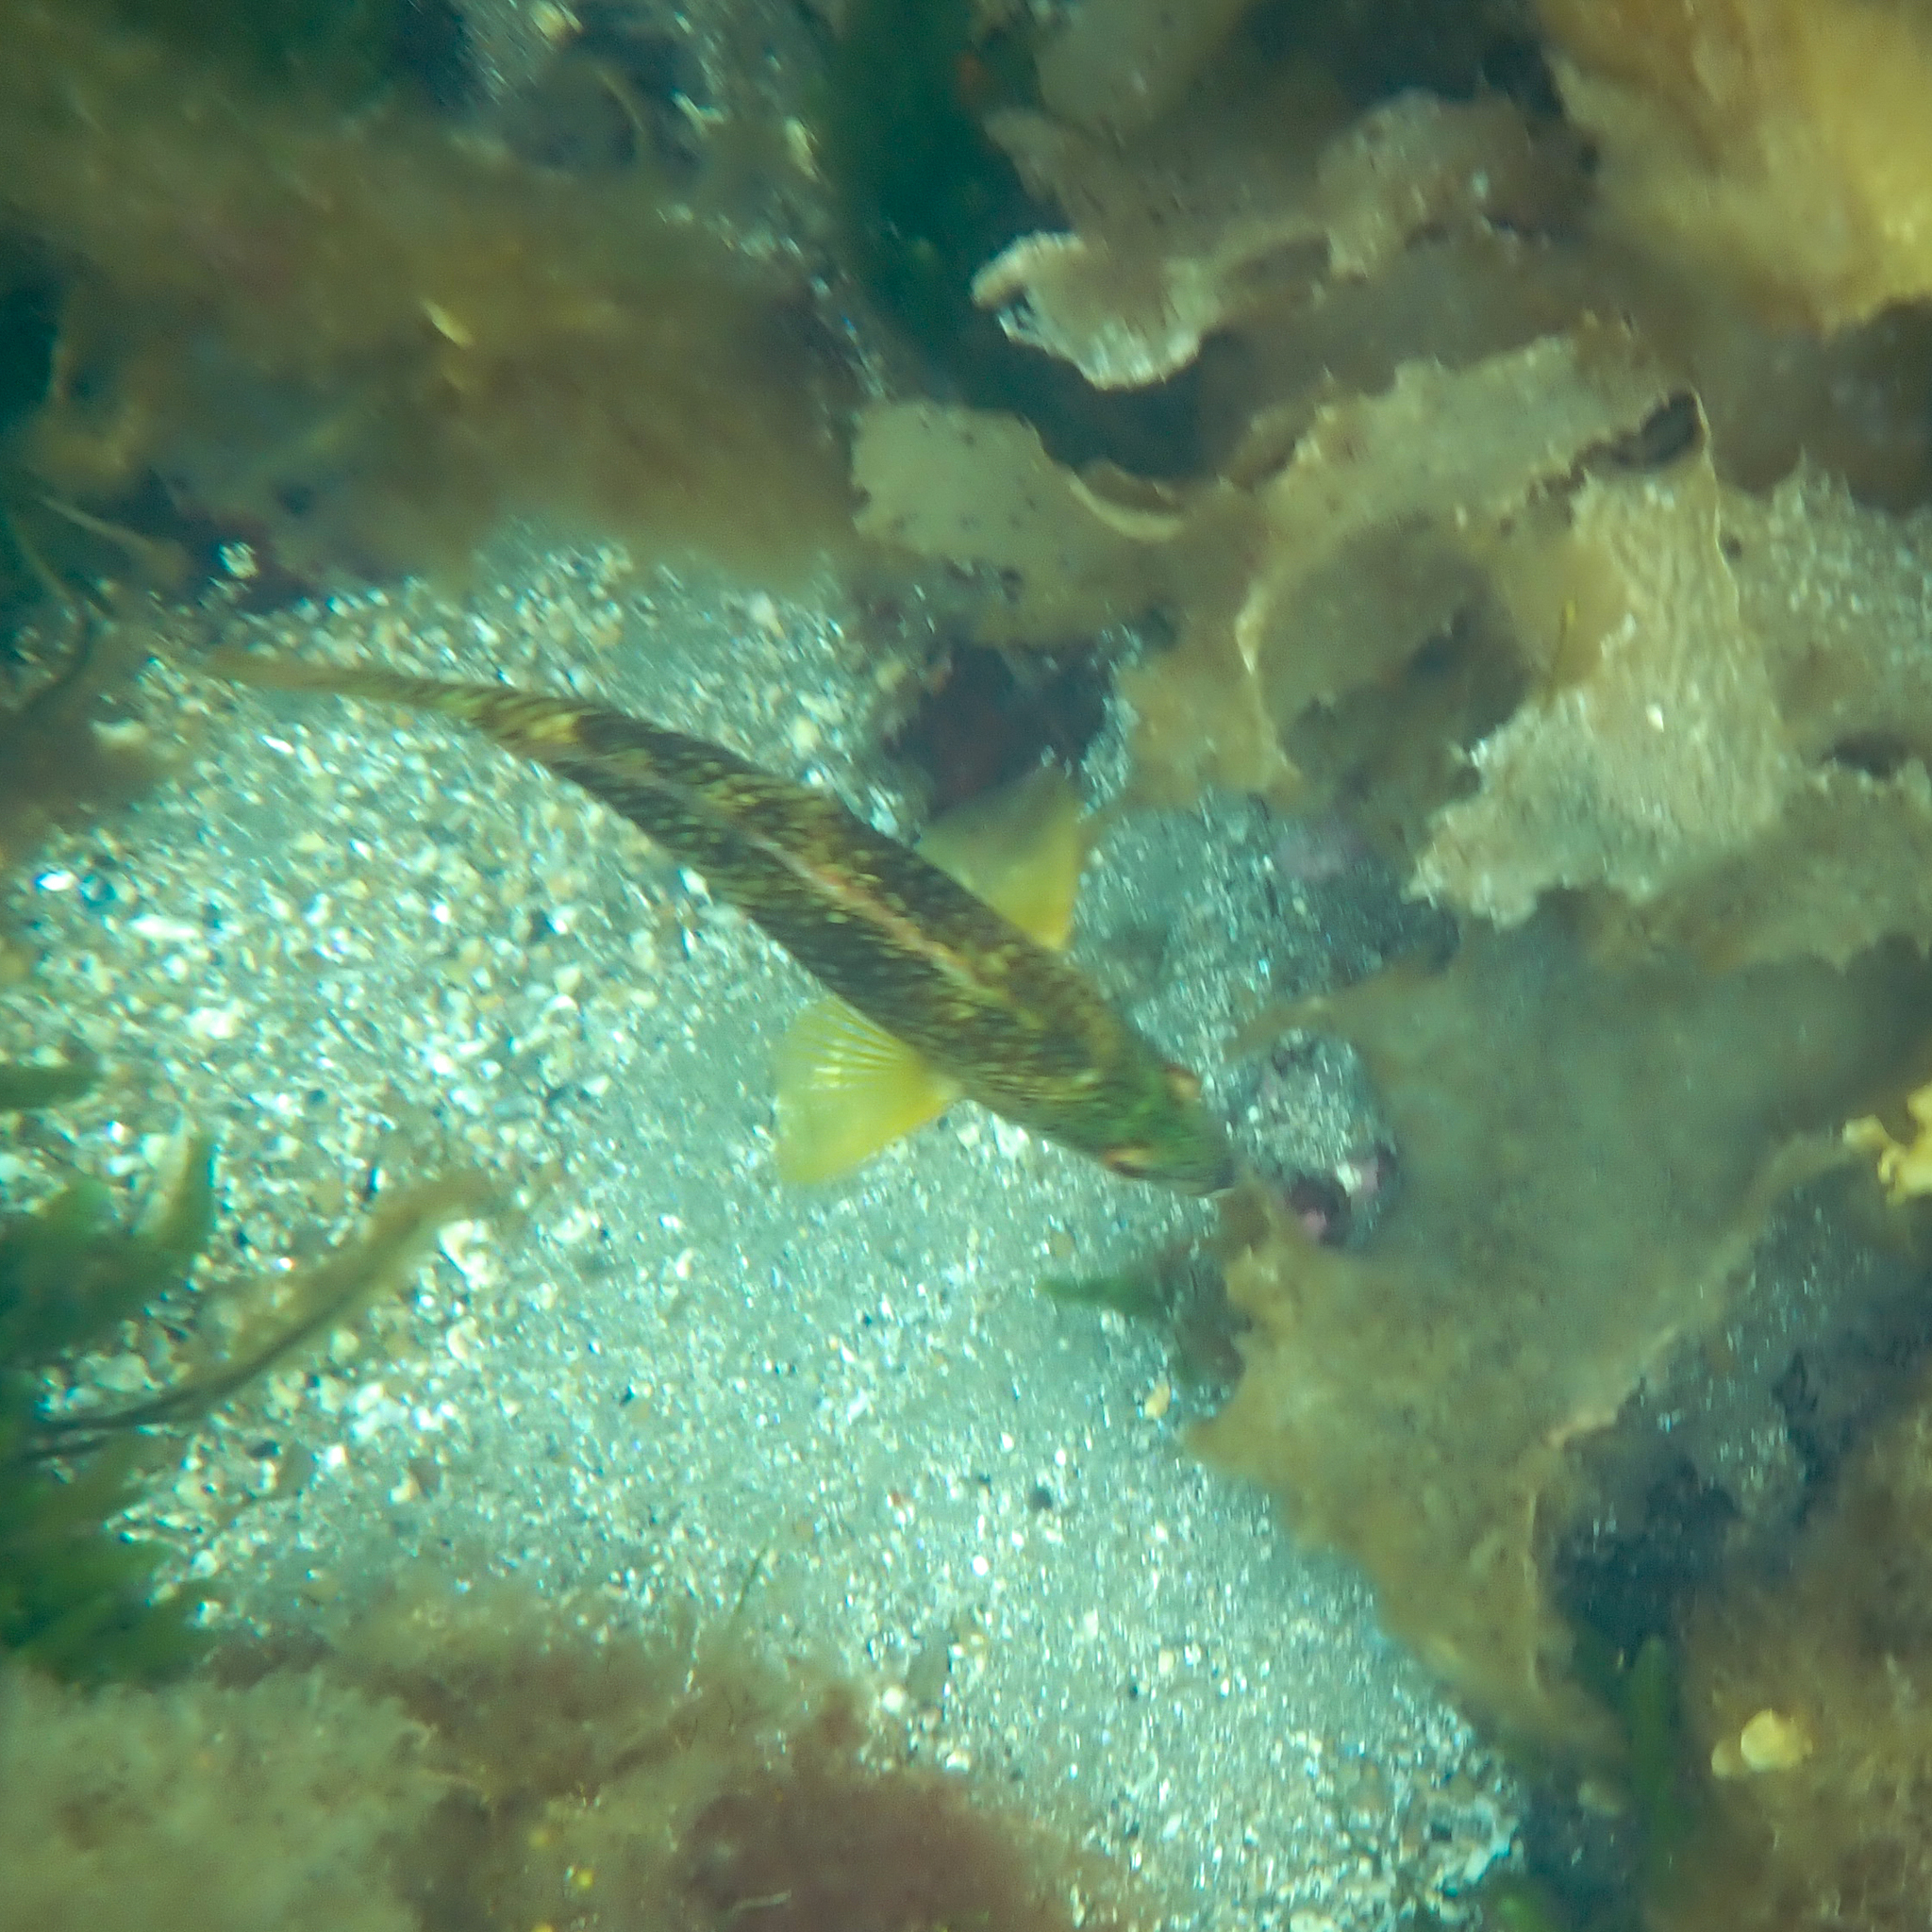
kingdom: Animalia
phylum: Chordata
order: Perciformes
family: Labridae
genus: Notolabrus
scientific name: Notolabrus tetricus
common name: Blue-throated parrotfish
